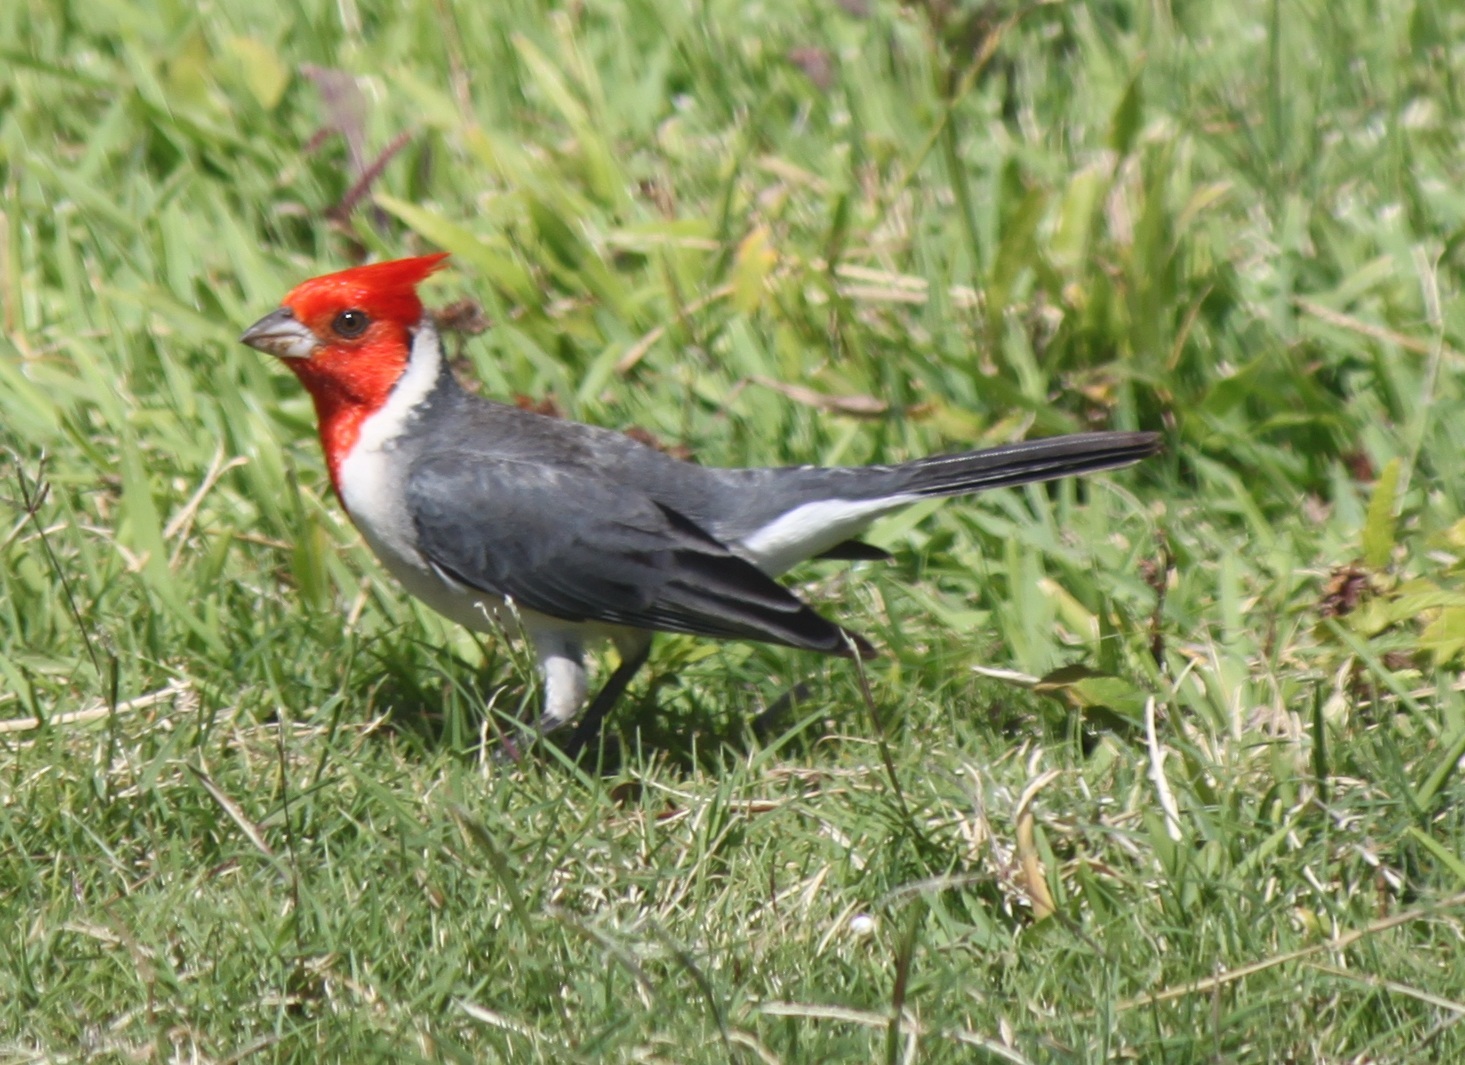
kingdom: Animalia
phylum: Chordata
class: Aves
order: Passeriformes
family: Thraupidae
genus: Paroaria
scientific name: Paroaria coronata
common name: Red-crested cardinal
